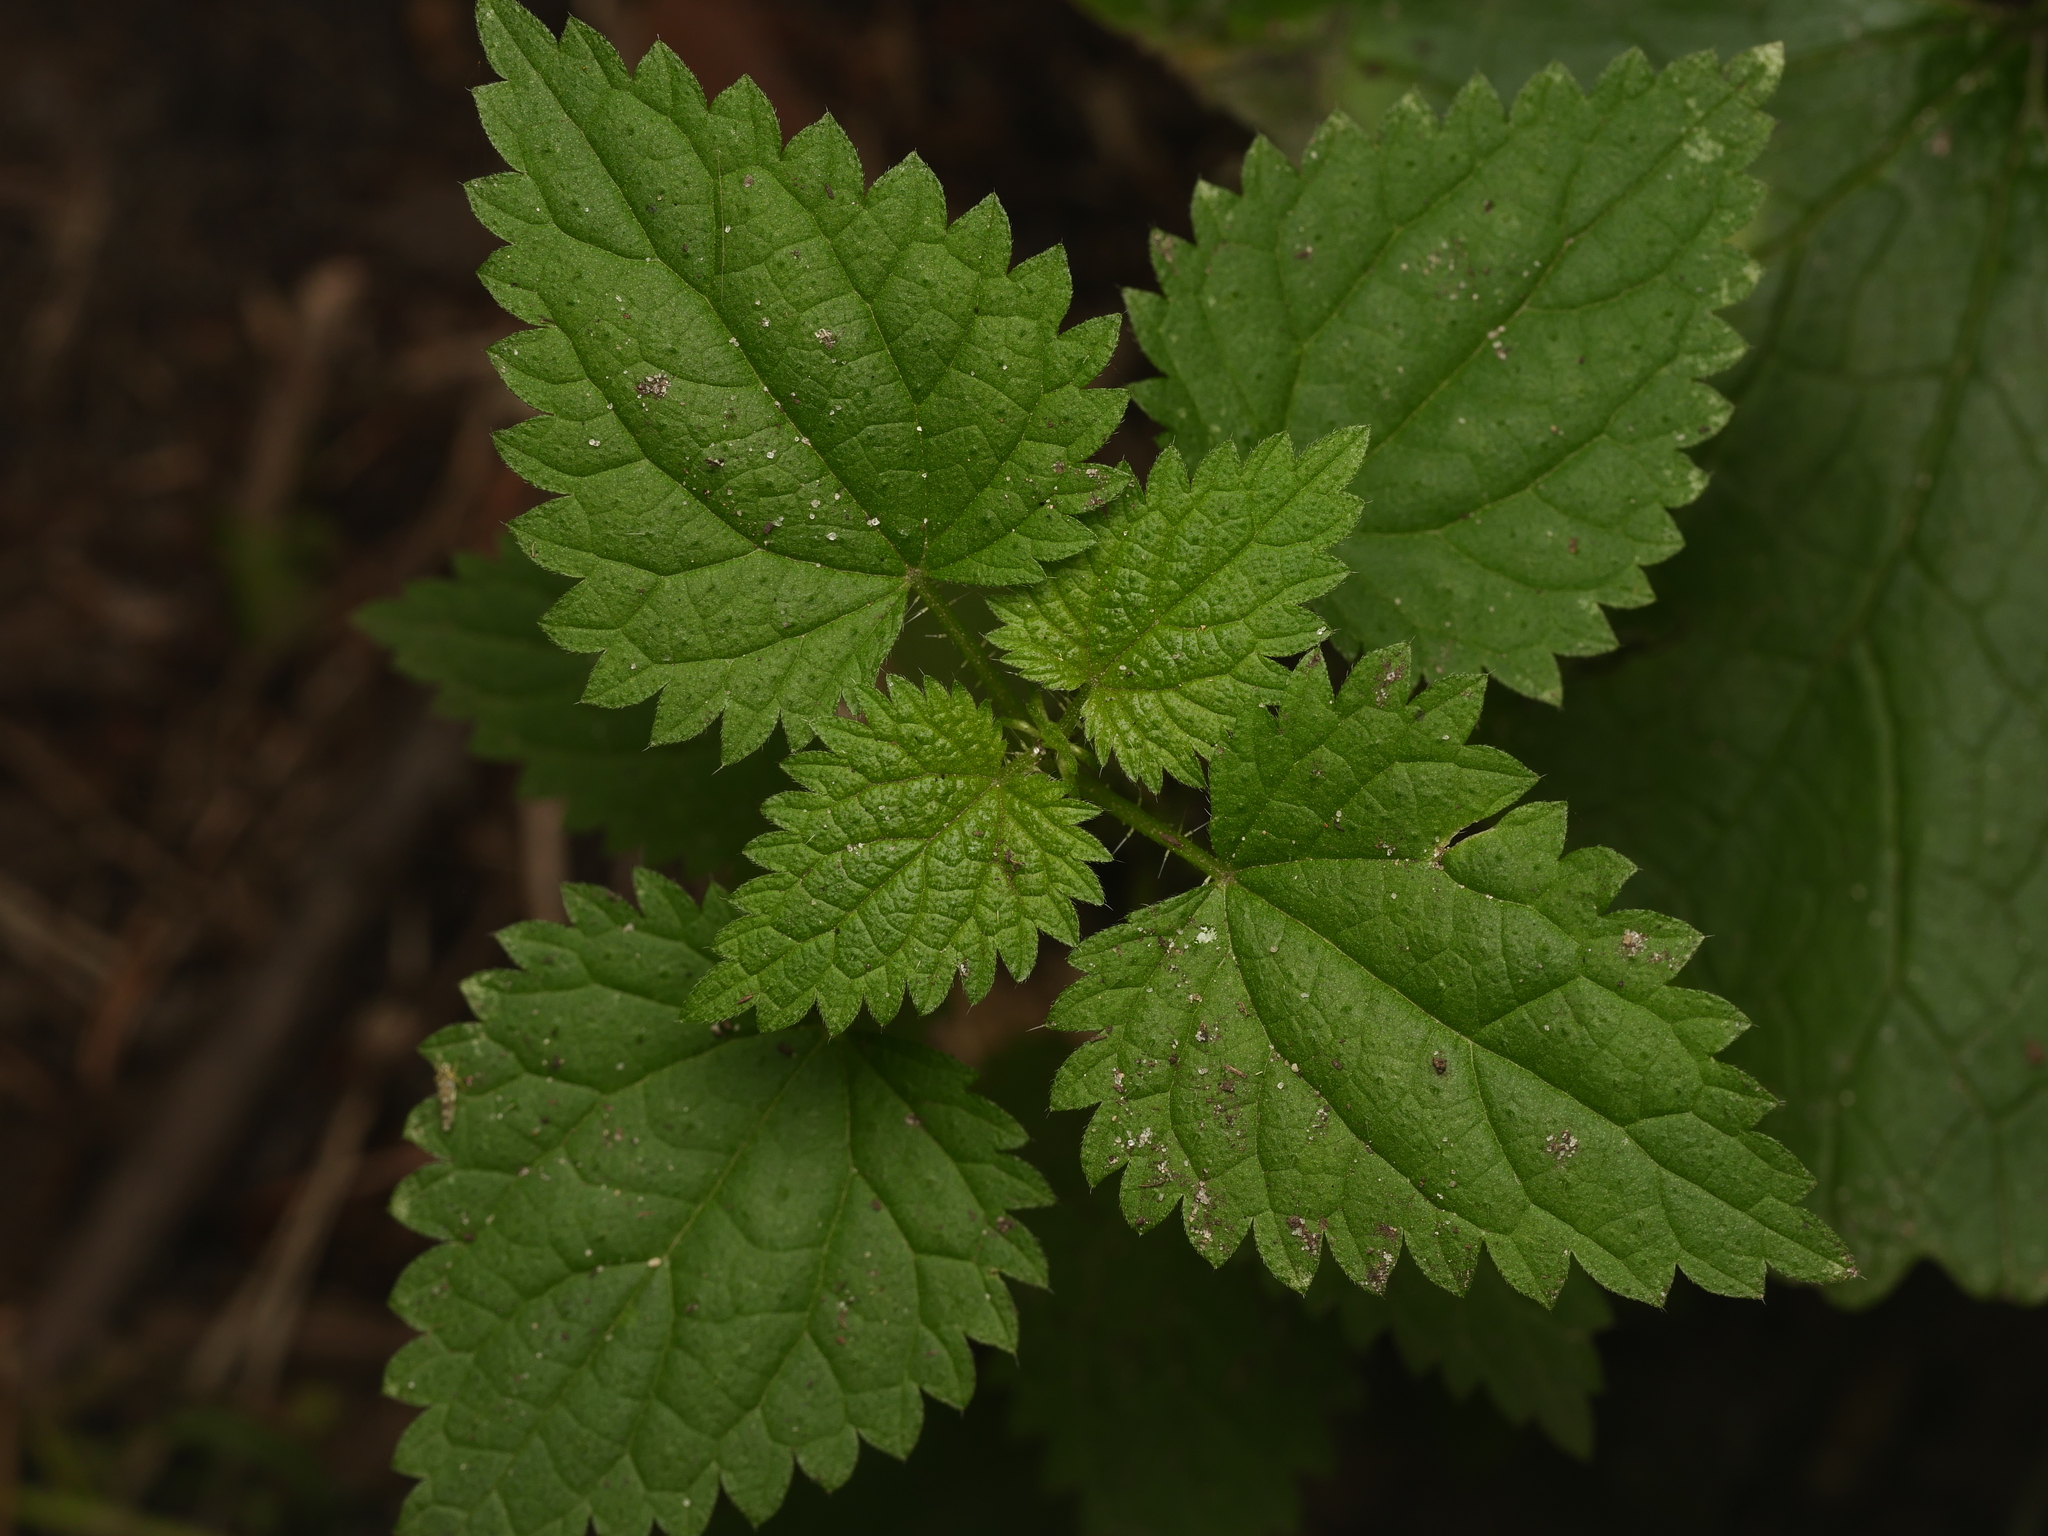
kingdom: Plantae
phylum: Tracheophyta
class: Magnoliopsida
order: Rosales
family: Urticaceae
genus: Urtica
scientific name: Urtica dioica
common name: Common nettle
